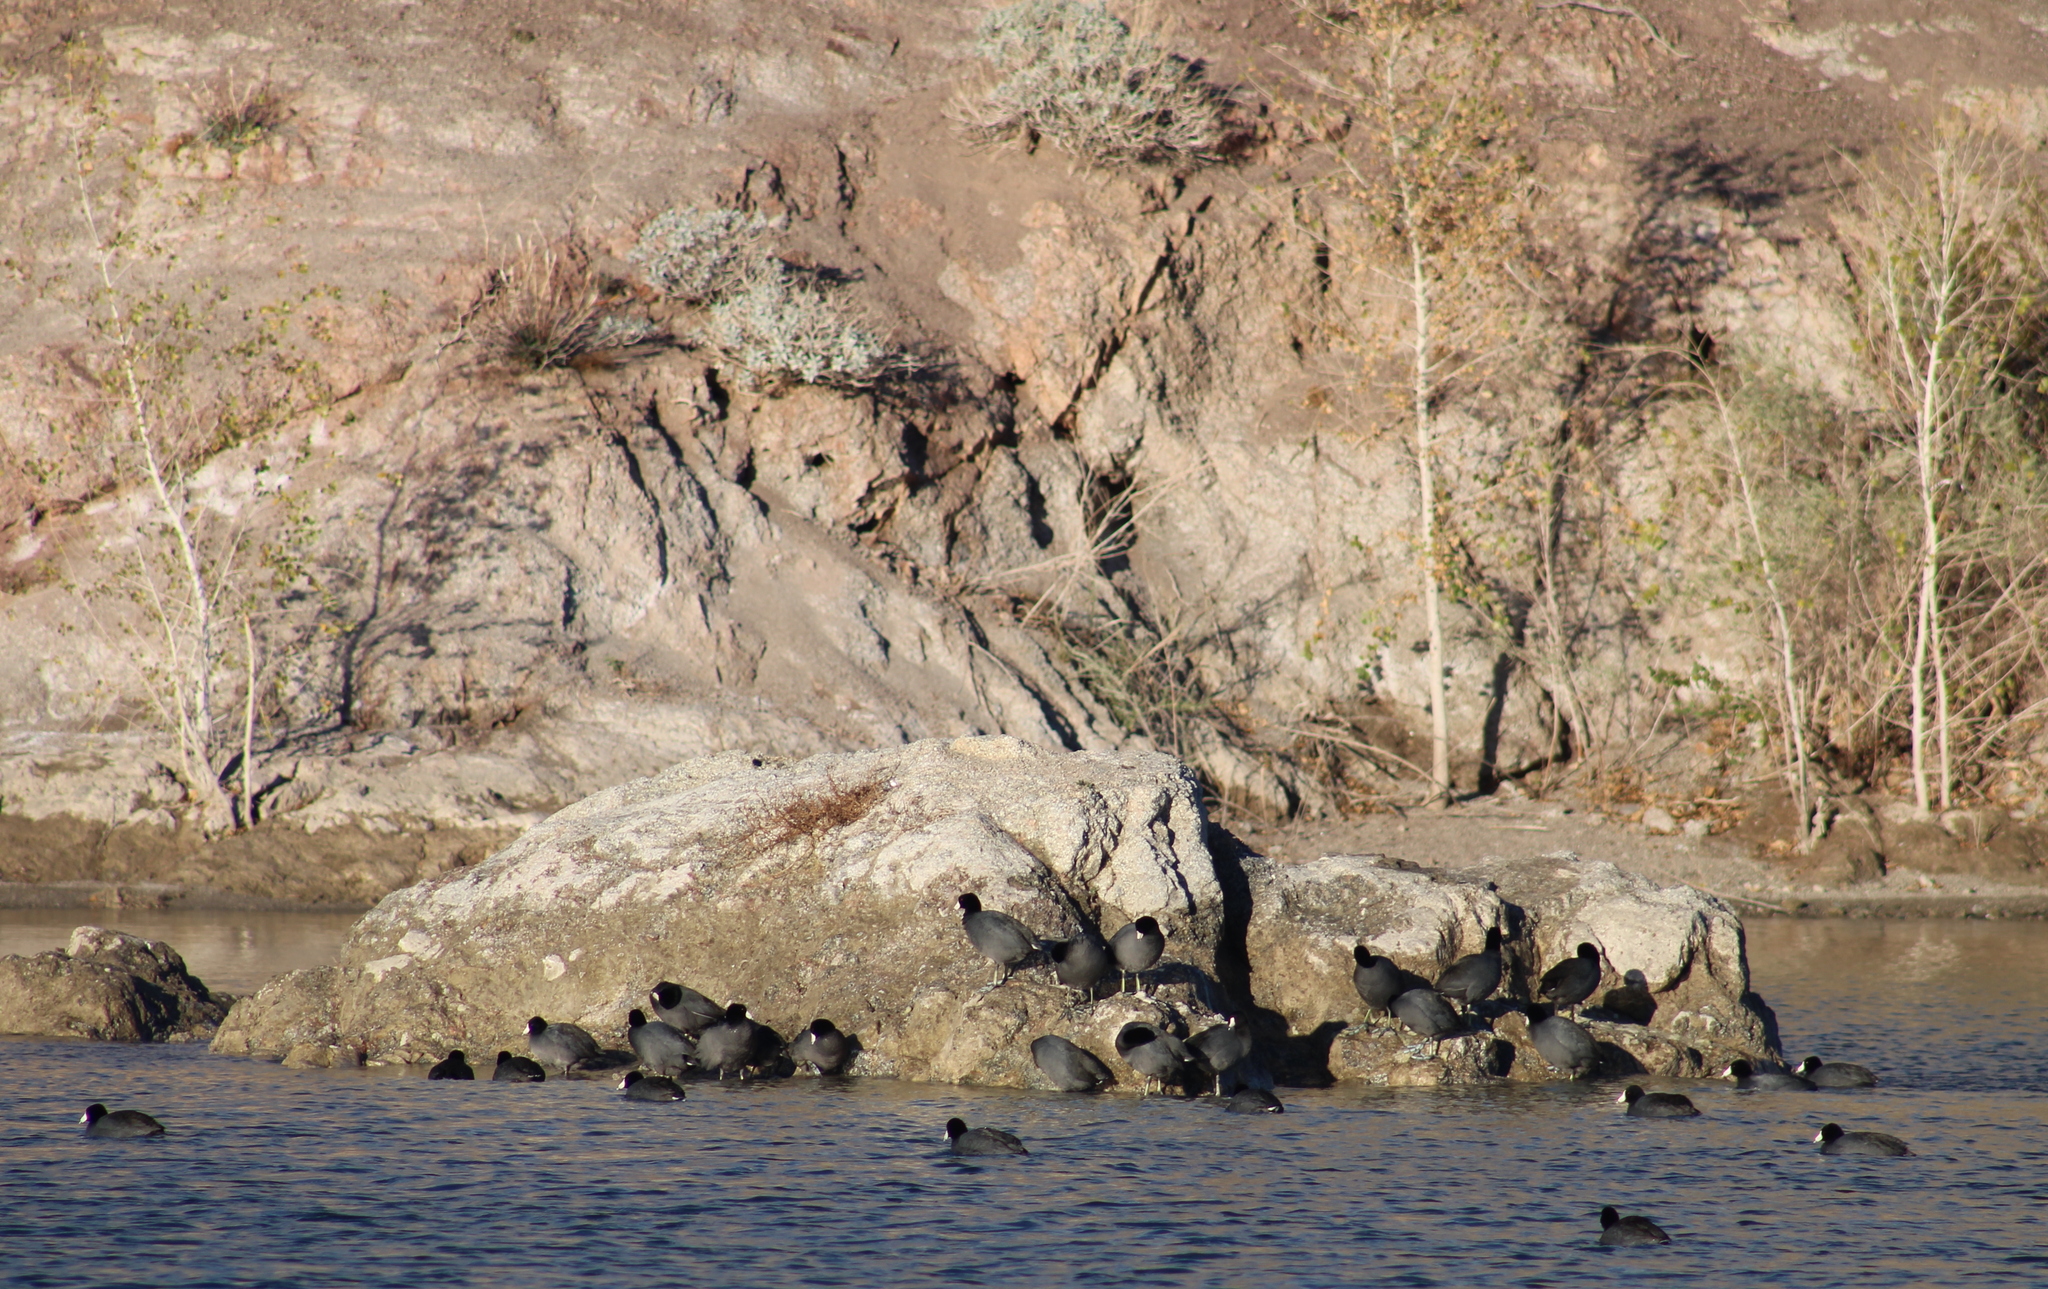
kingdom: Animalia
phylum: Chordata
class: Aves
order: Gruiformes
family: Rallidae
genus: Fulica
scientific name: Fulica americana
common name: American coot
